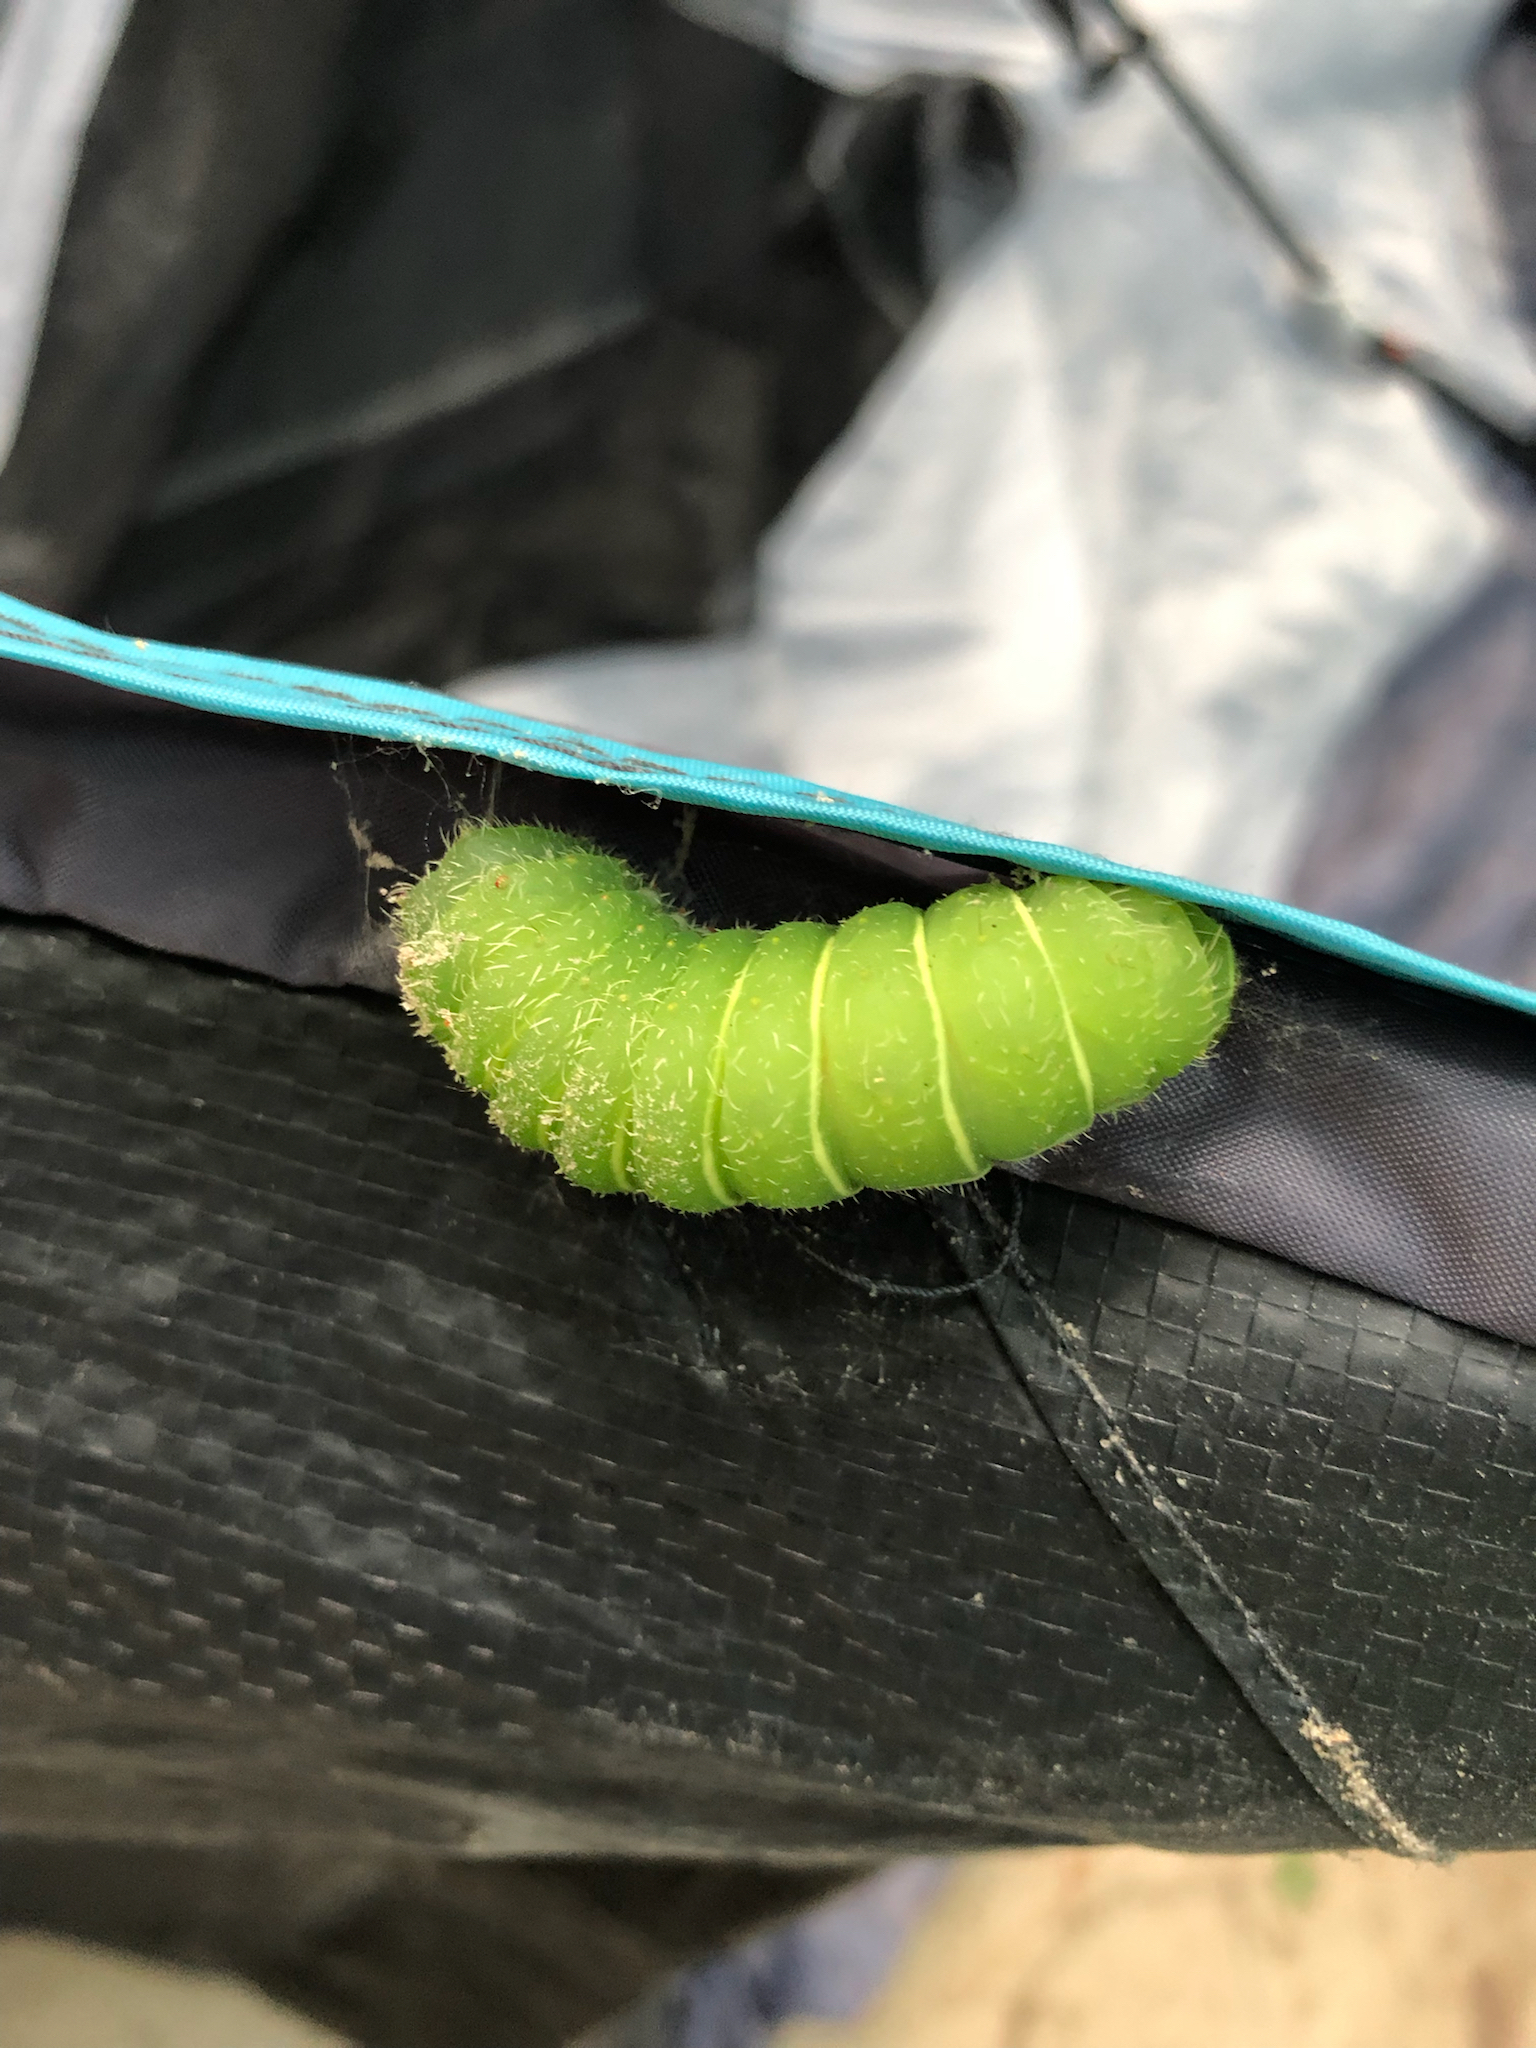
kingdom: Animalia
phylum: Arthropoda
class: Insecta
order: Lepidoptera
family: Saturniidae
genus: Actias
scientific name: Actias luna
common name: Luna moth
